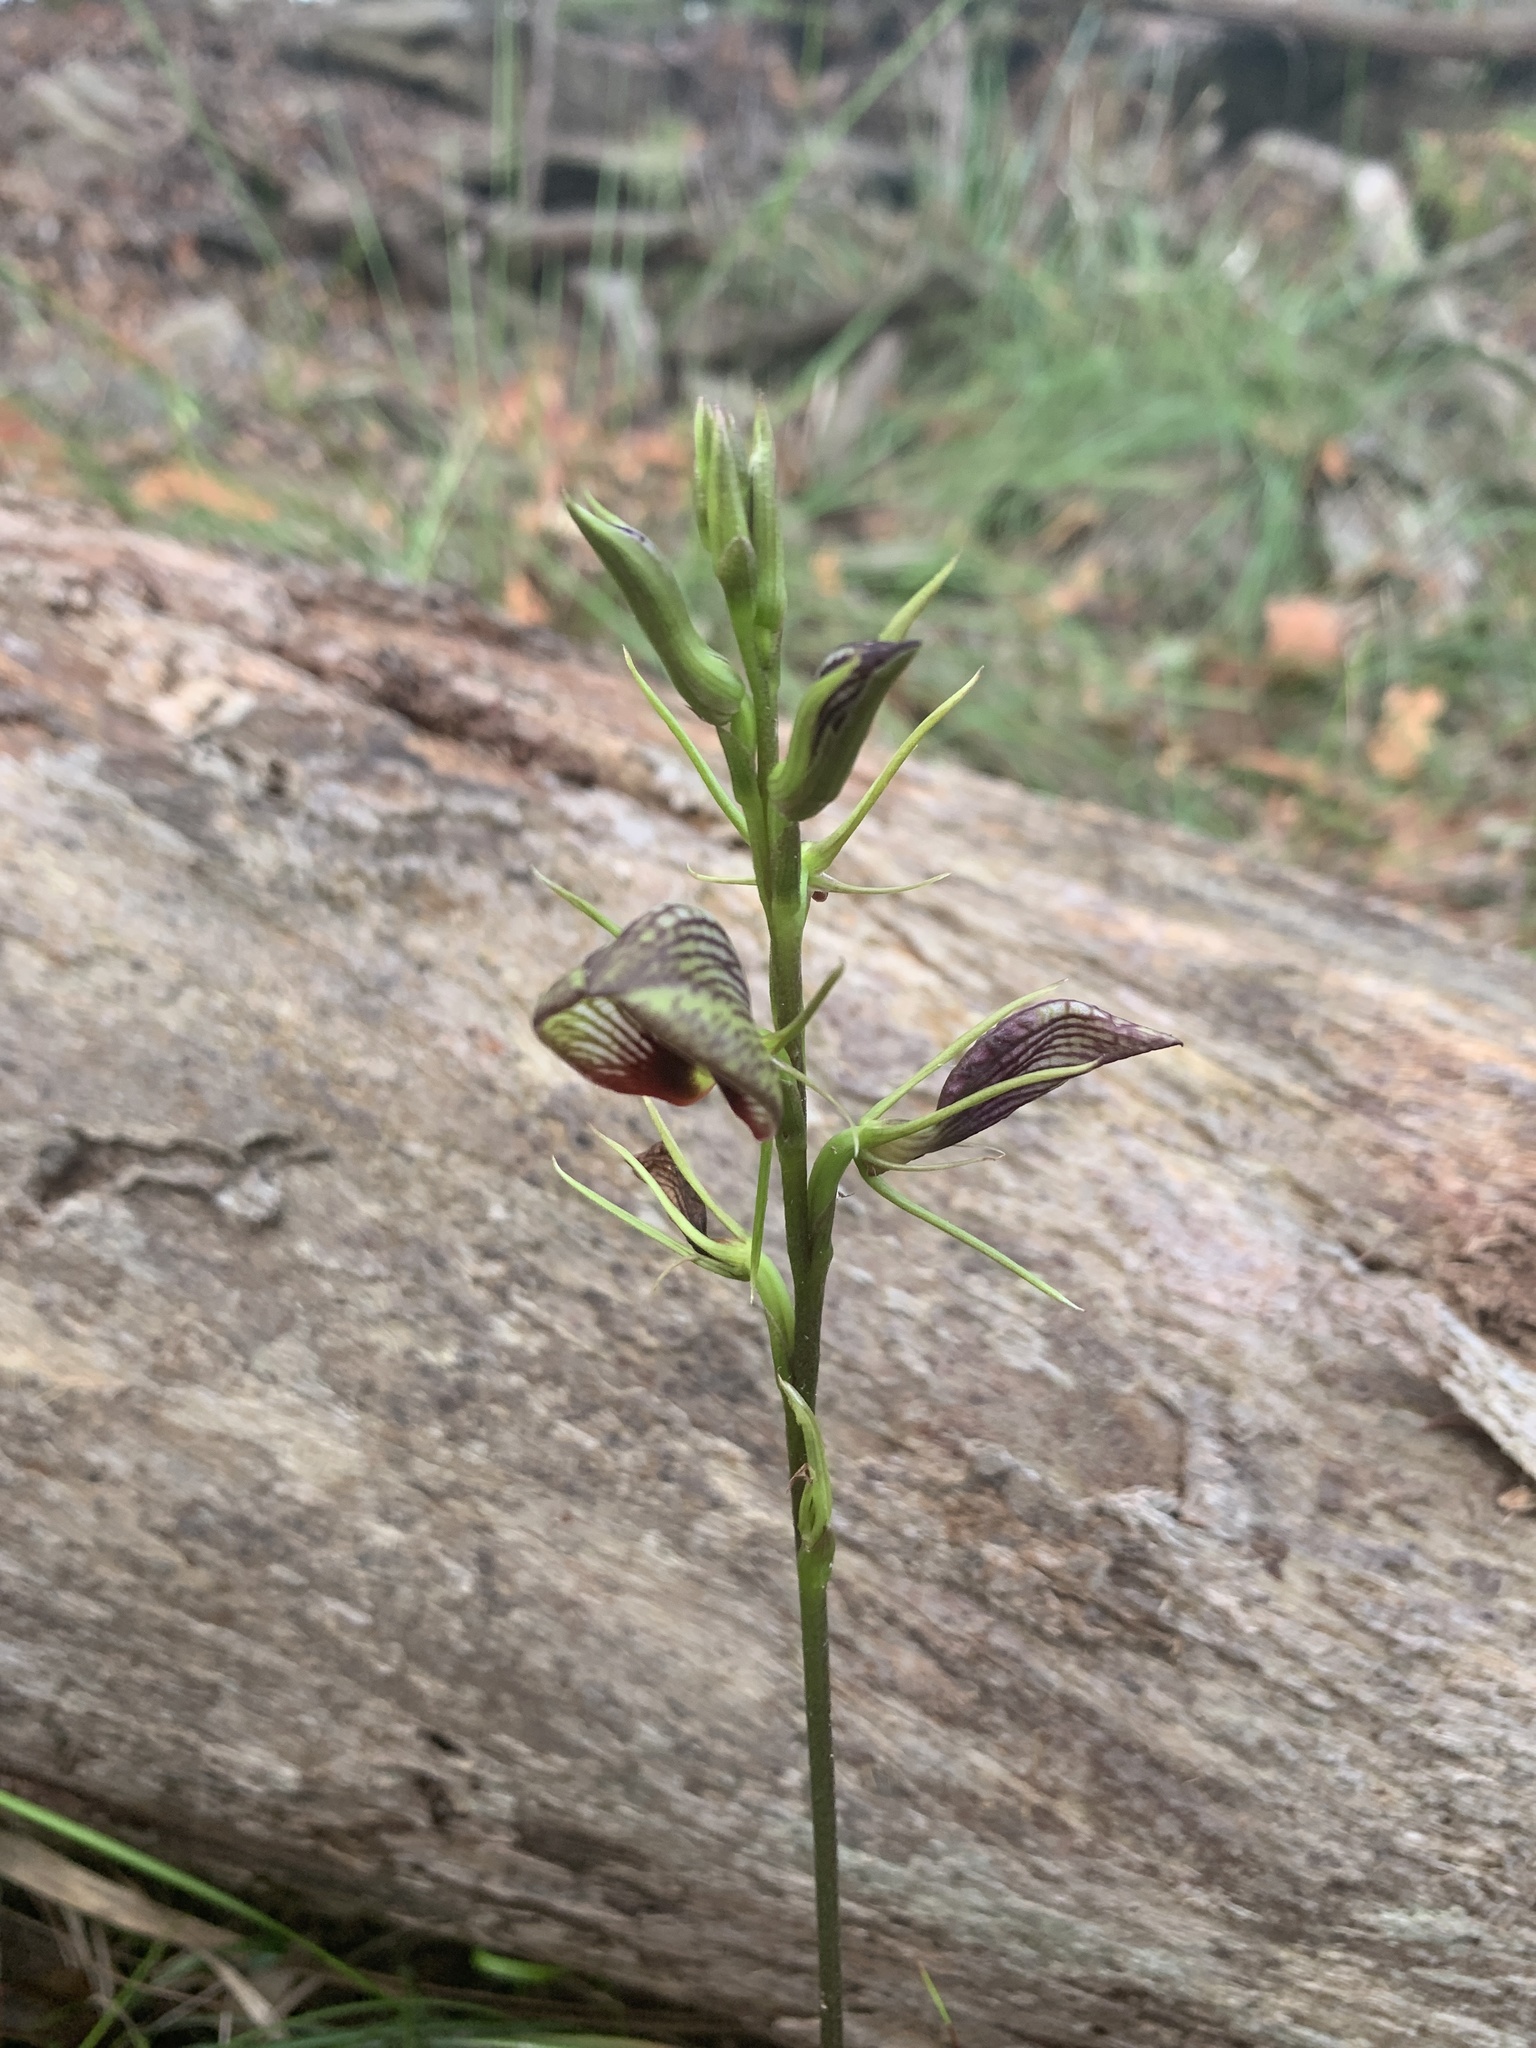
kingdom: Plantae
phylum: Tracheophyta
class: Liliopsida
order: Asparagales
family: Orchidaceae
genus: Cryptostylis
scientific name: Cryptostylis erecta
